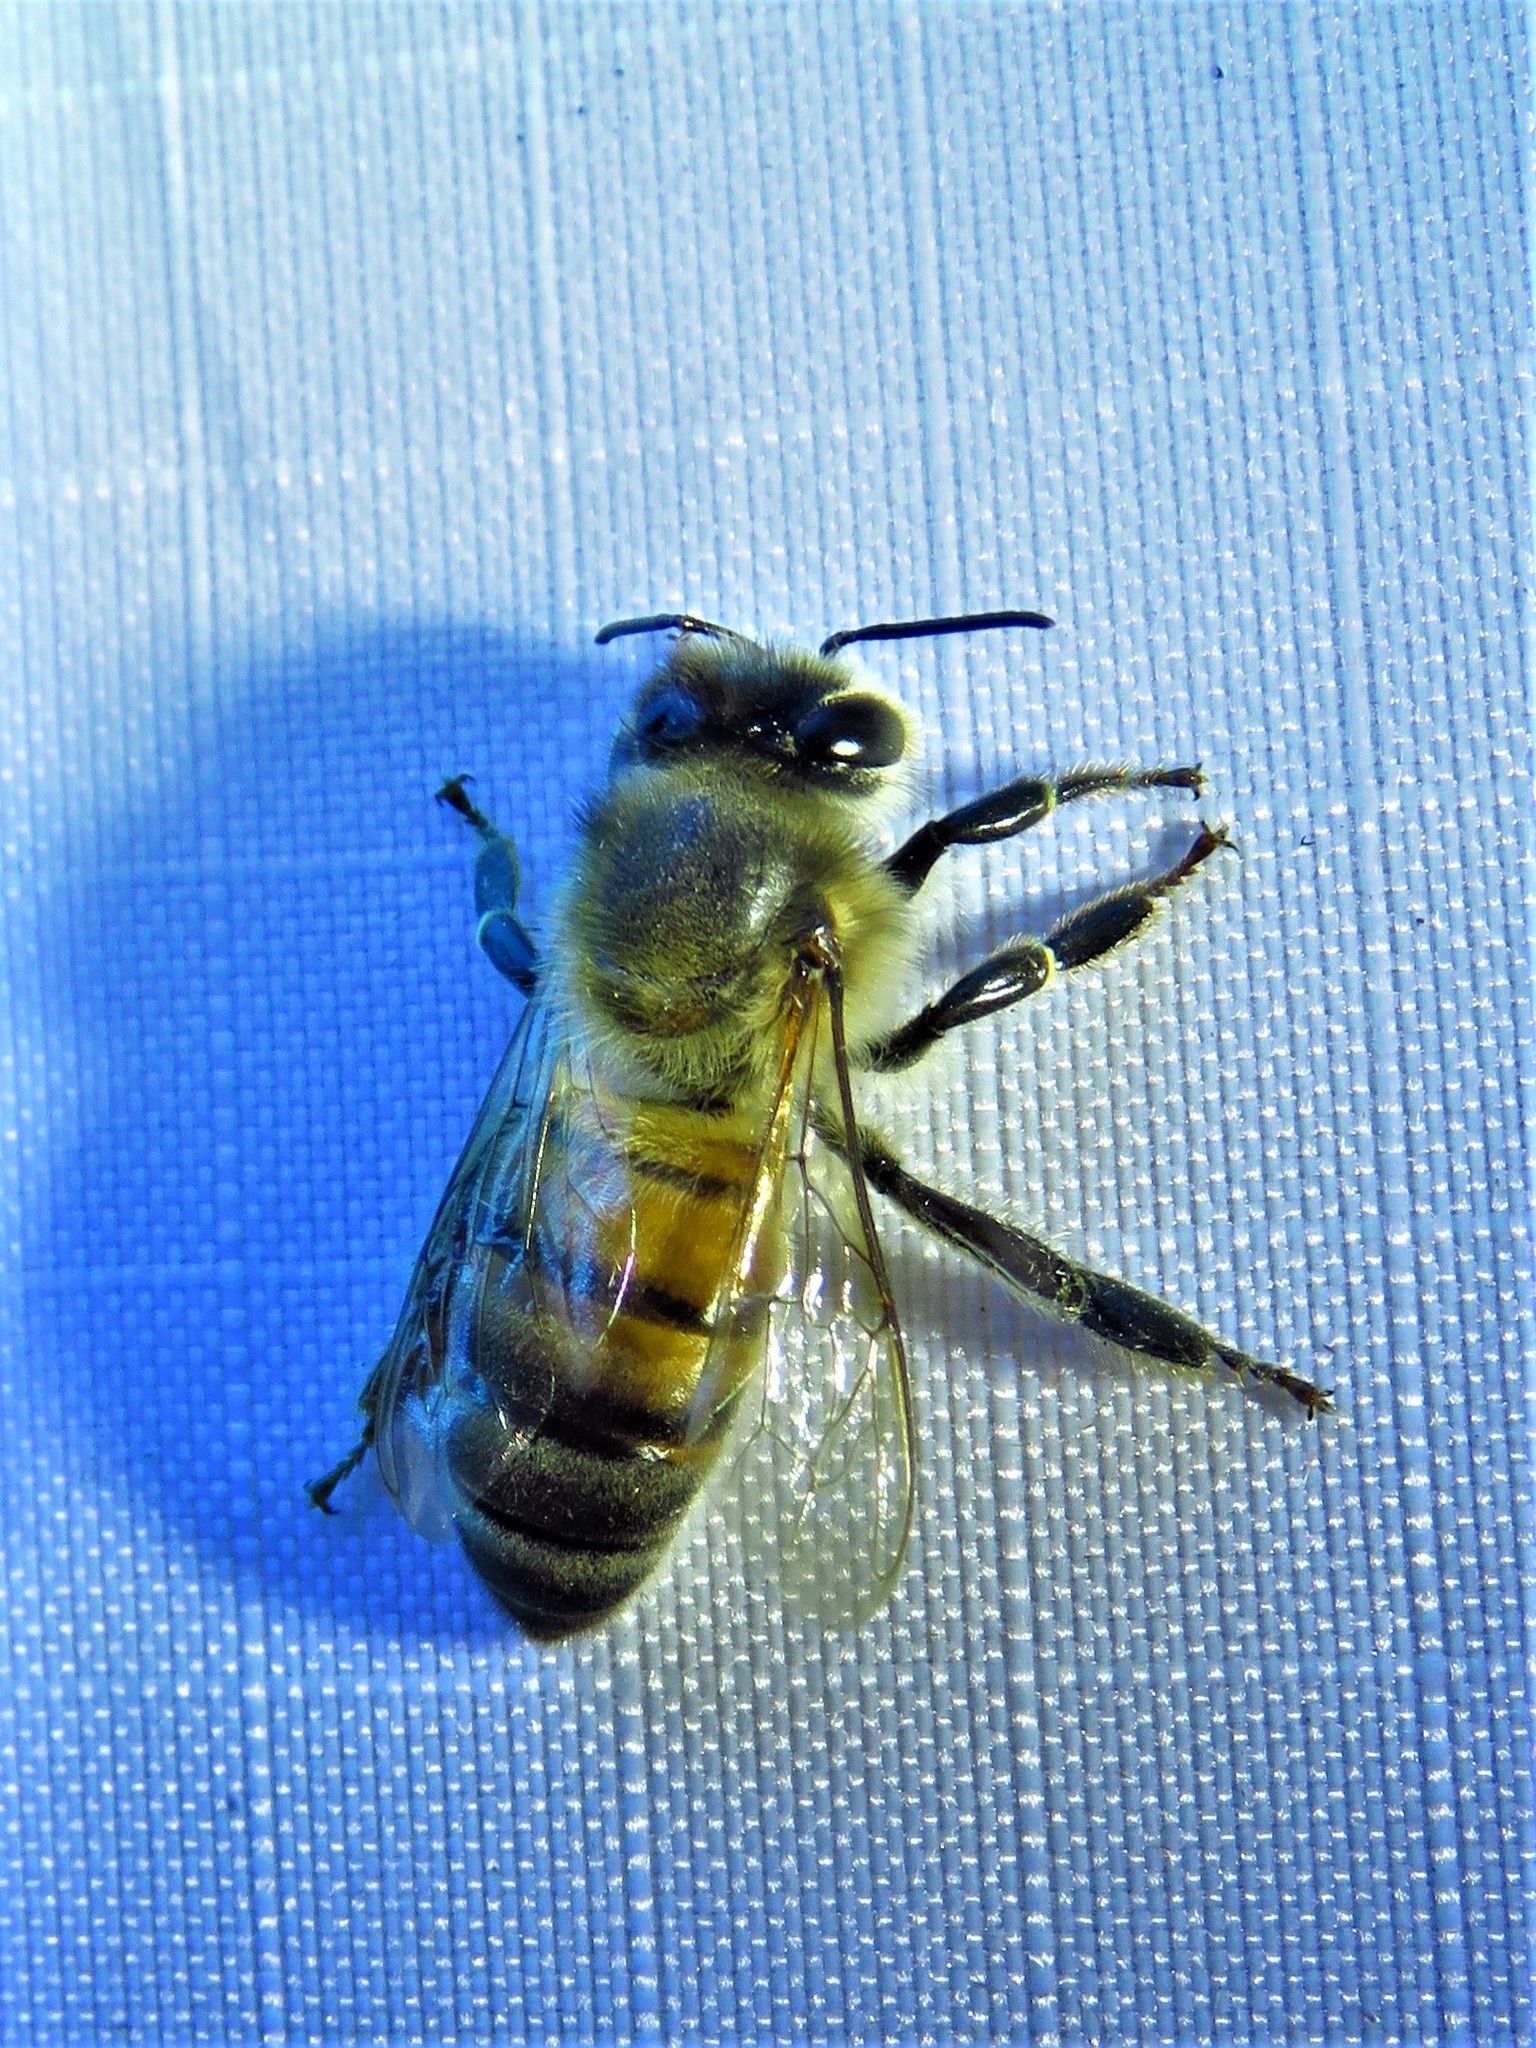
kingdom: Animalia
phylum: Arthropoda
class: Insecta
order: Hymenoptera
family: Apidae
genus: Apis
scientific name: Apis mellifera
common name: Honey bee
